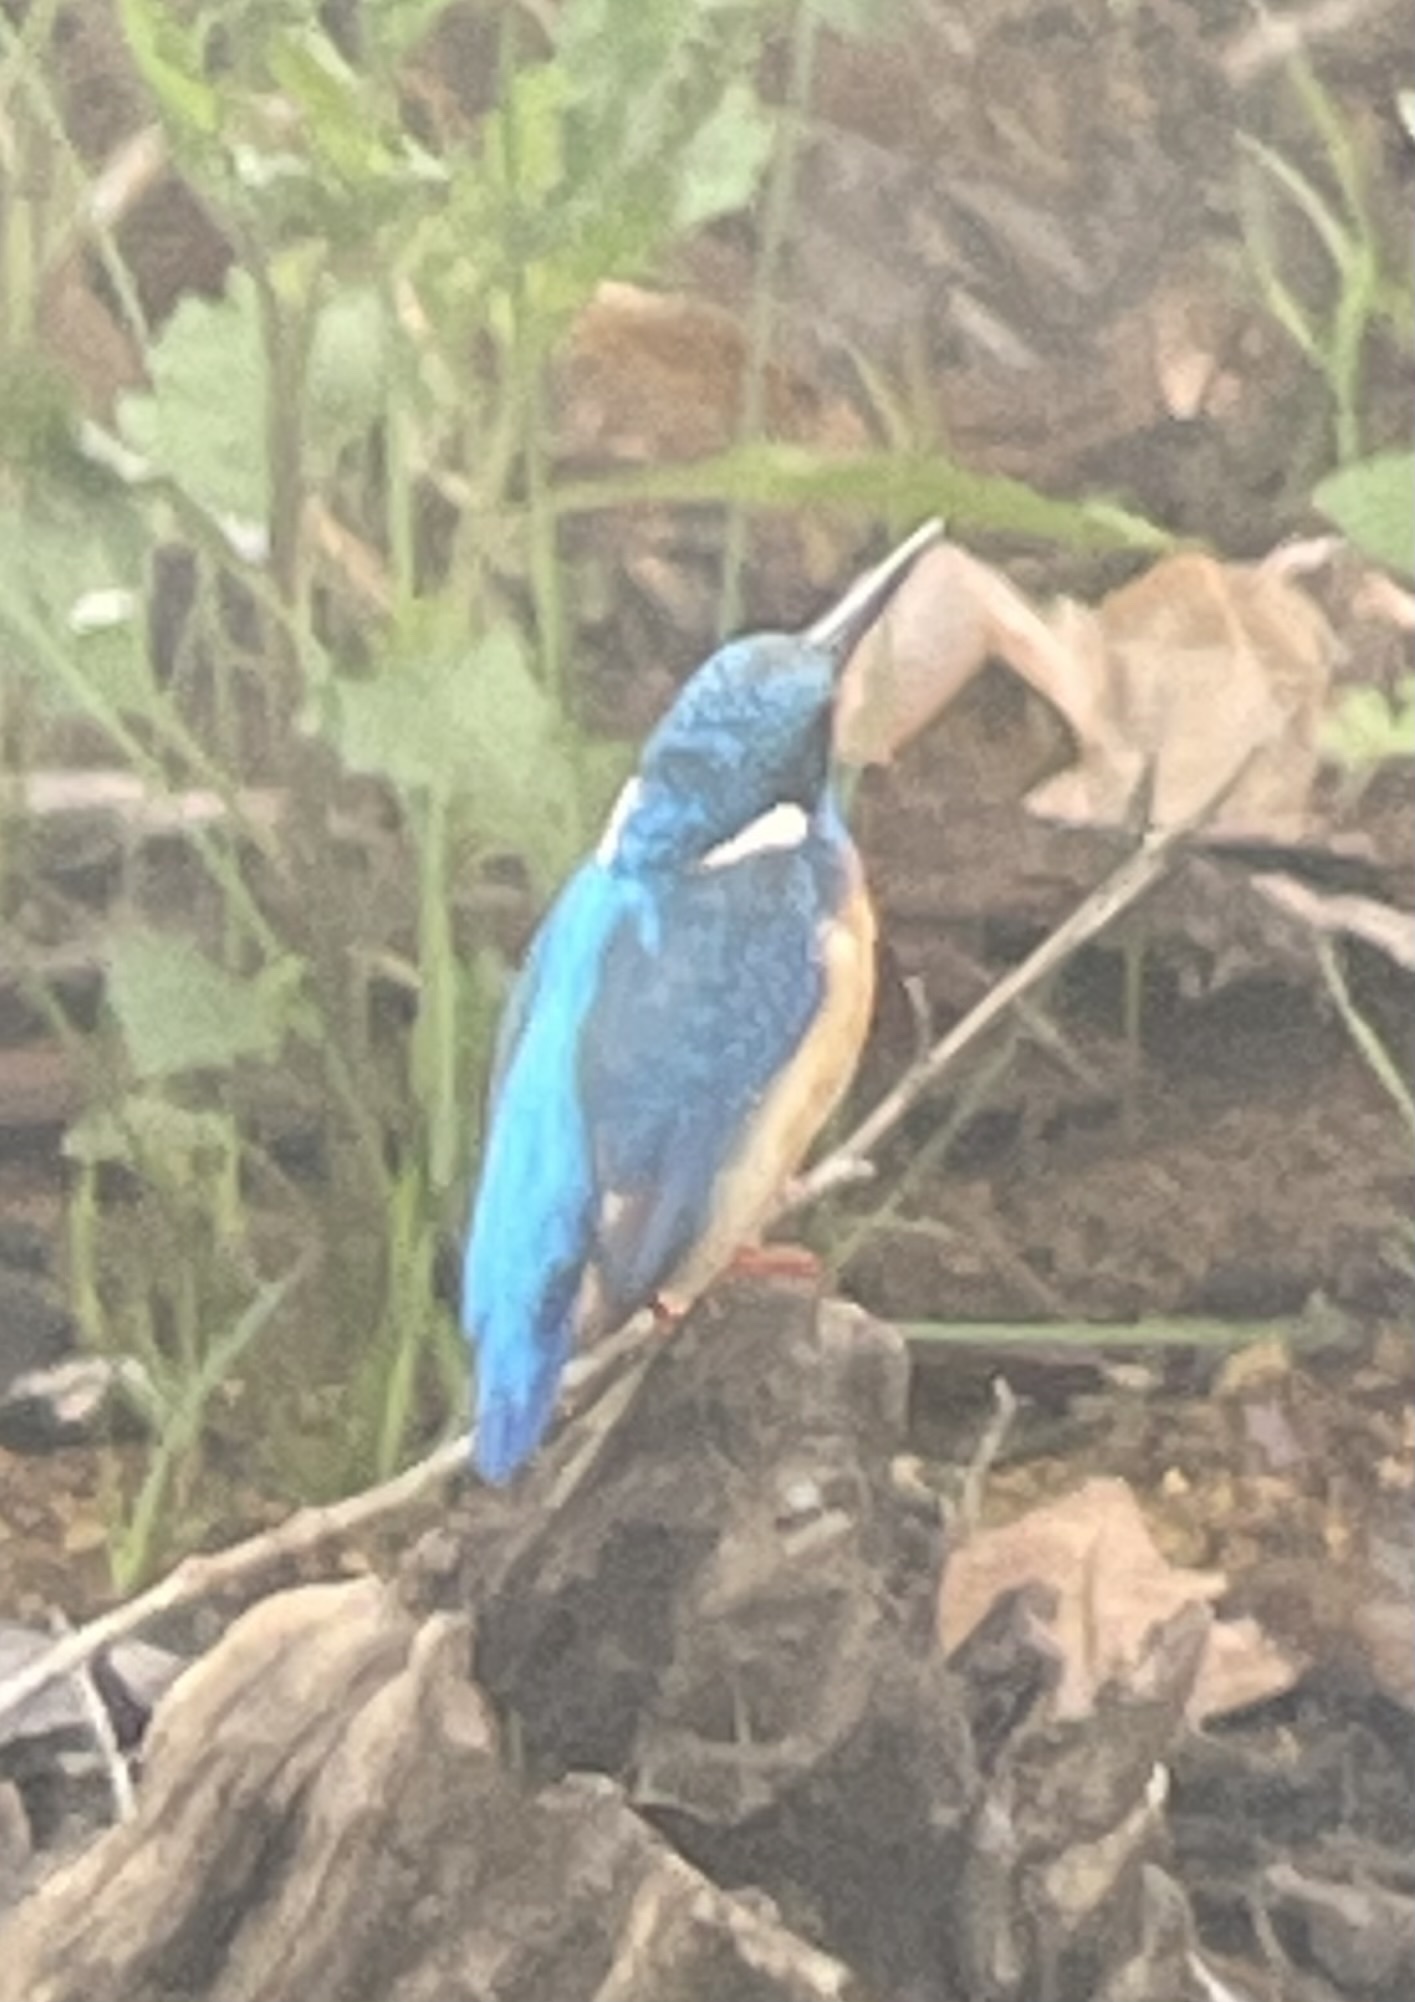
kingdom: Animalia
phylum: Chordata
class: Aves
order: Coraciiformes
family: Alcedinidae
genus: Alcedo
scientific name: Alcedo atthis
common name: Common kingfisher
